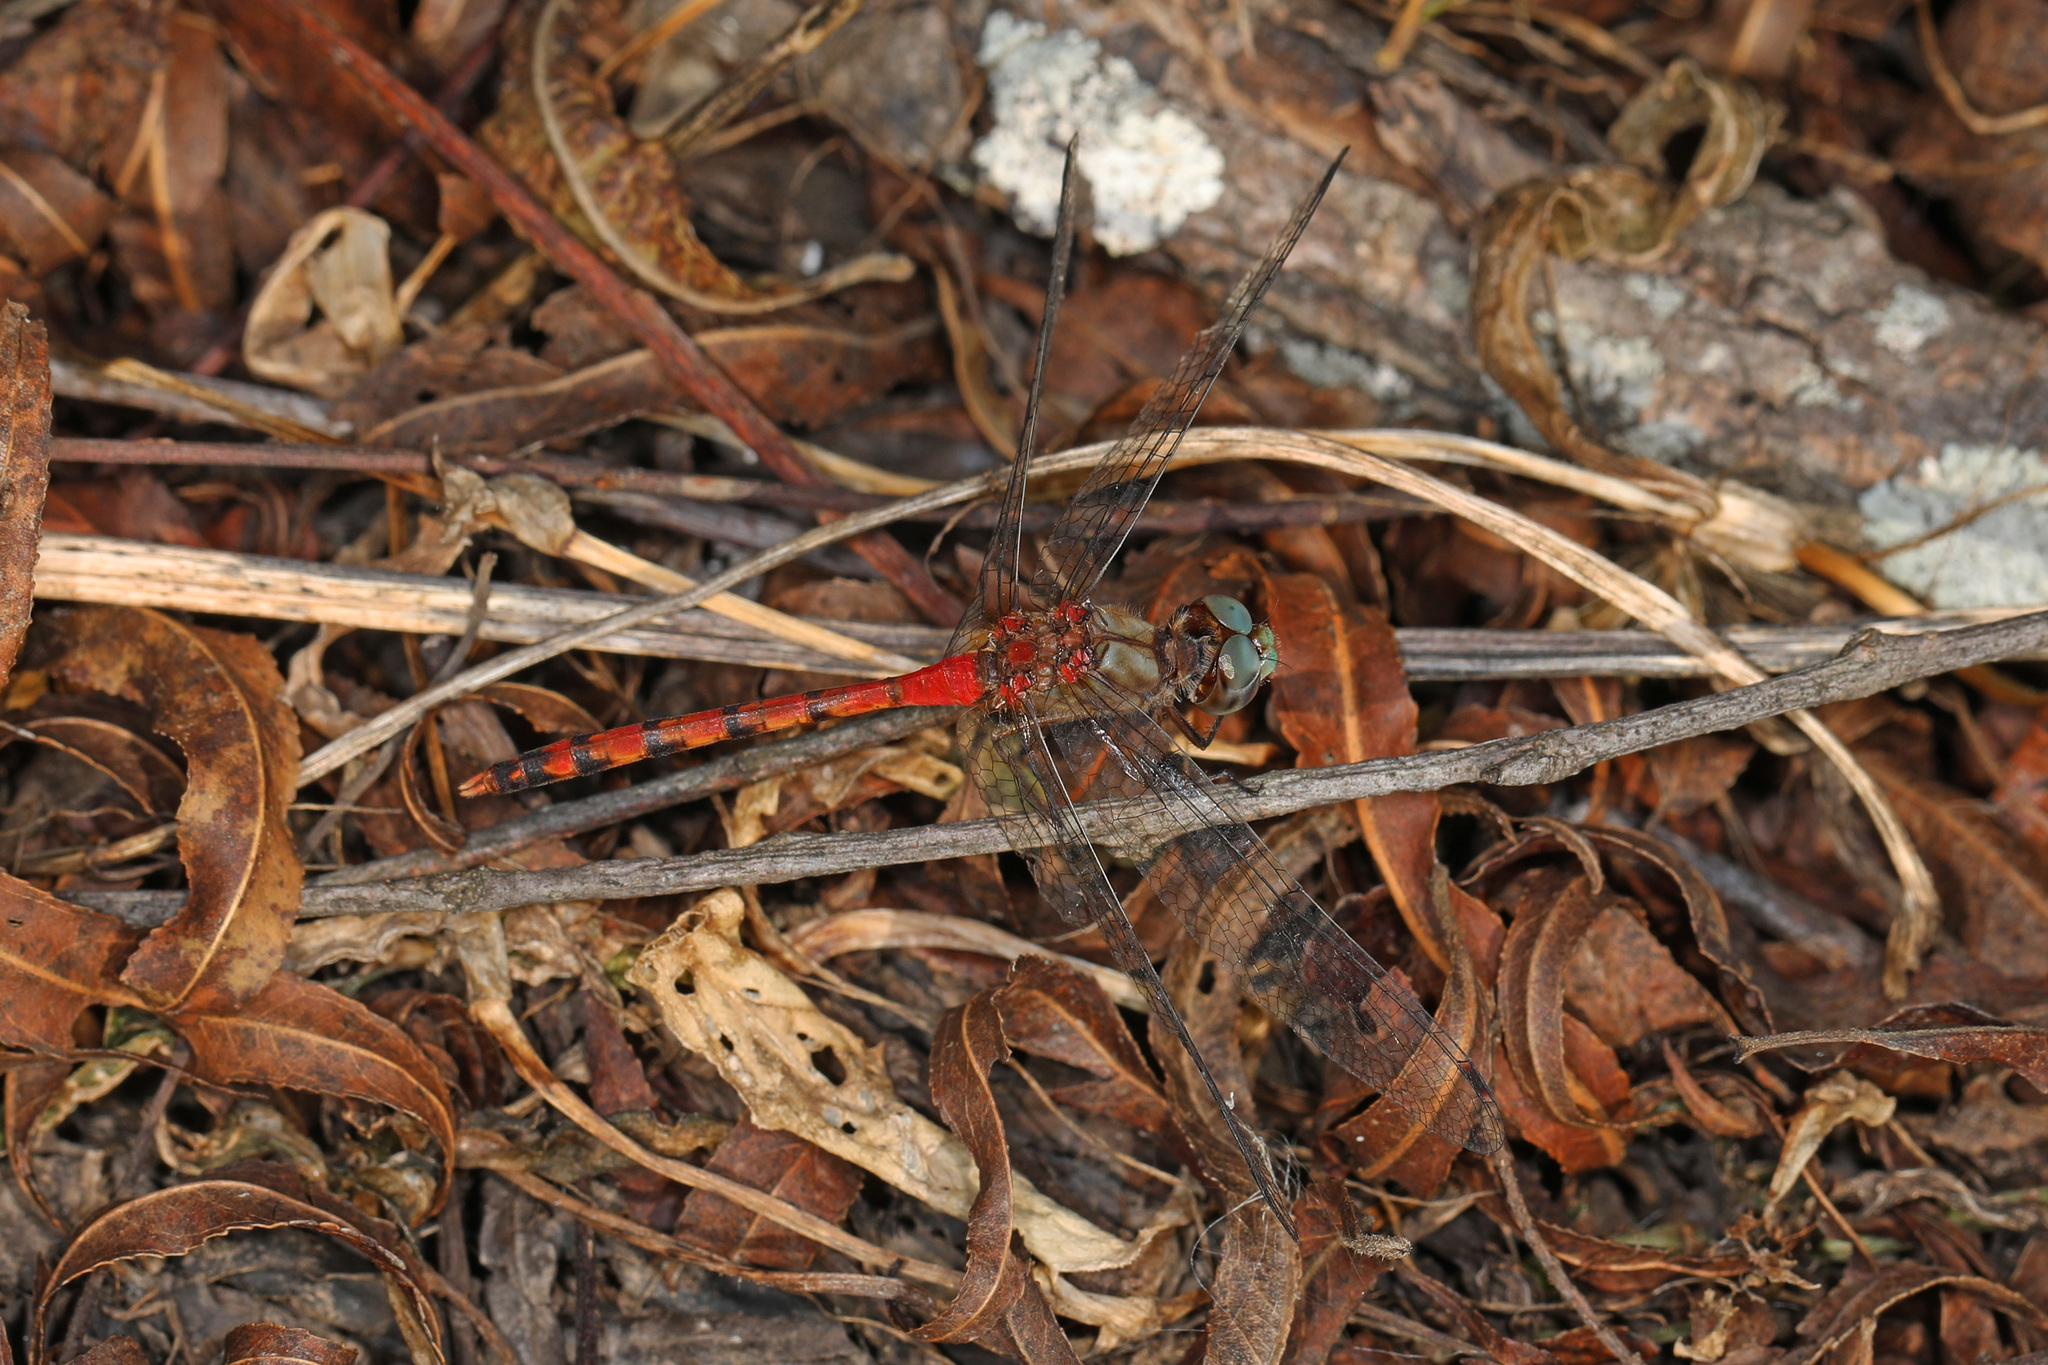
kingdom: Animalia
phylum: Arthropoda
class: Insecta
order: Odonata
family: Libellulidae
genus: Sympetrum
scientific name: Sympetrum ambiguum
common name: Blue-faced meadowhawk
